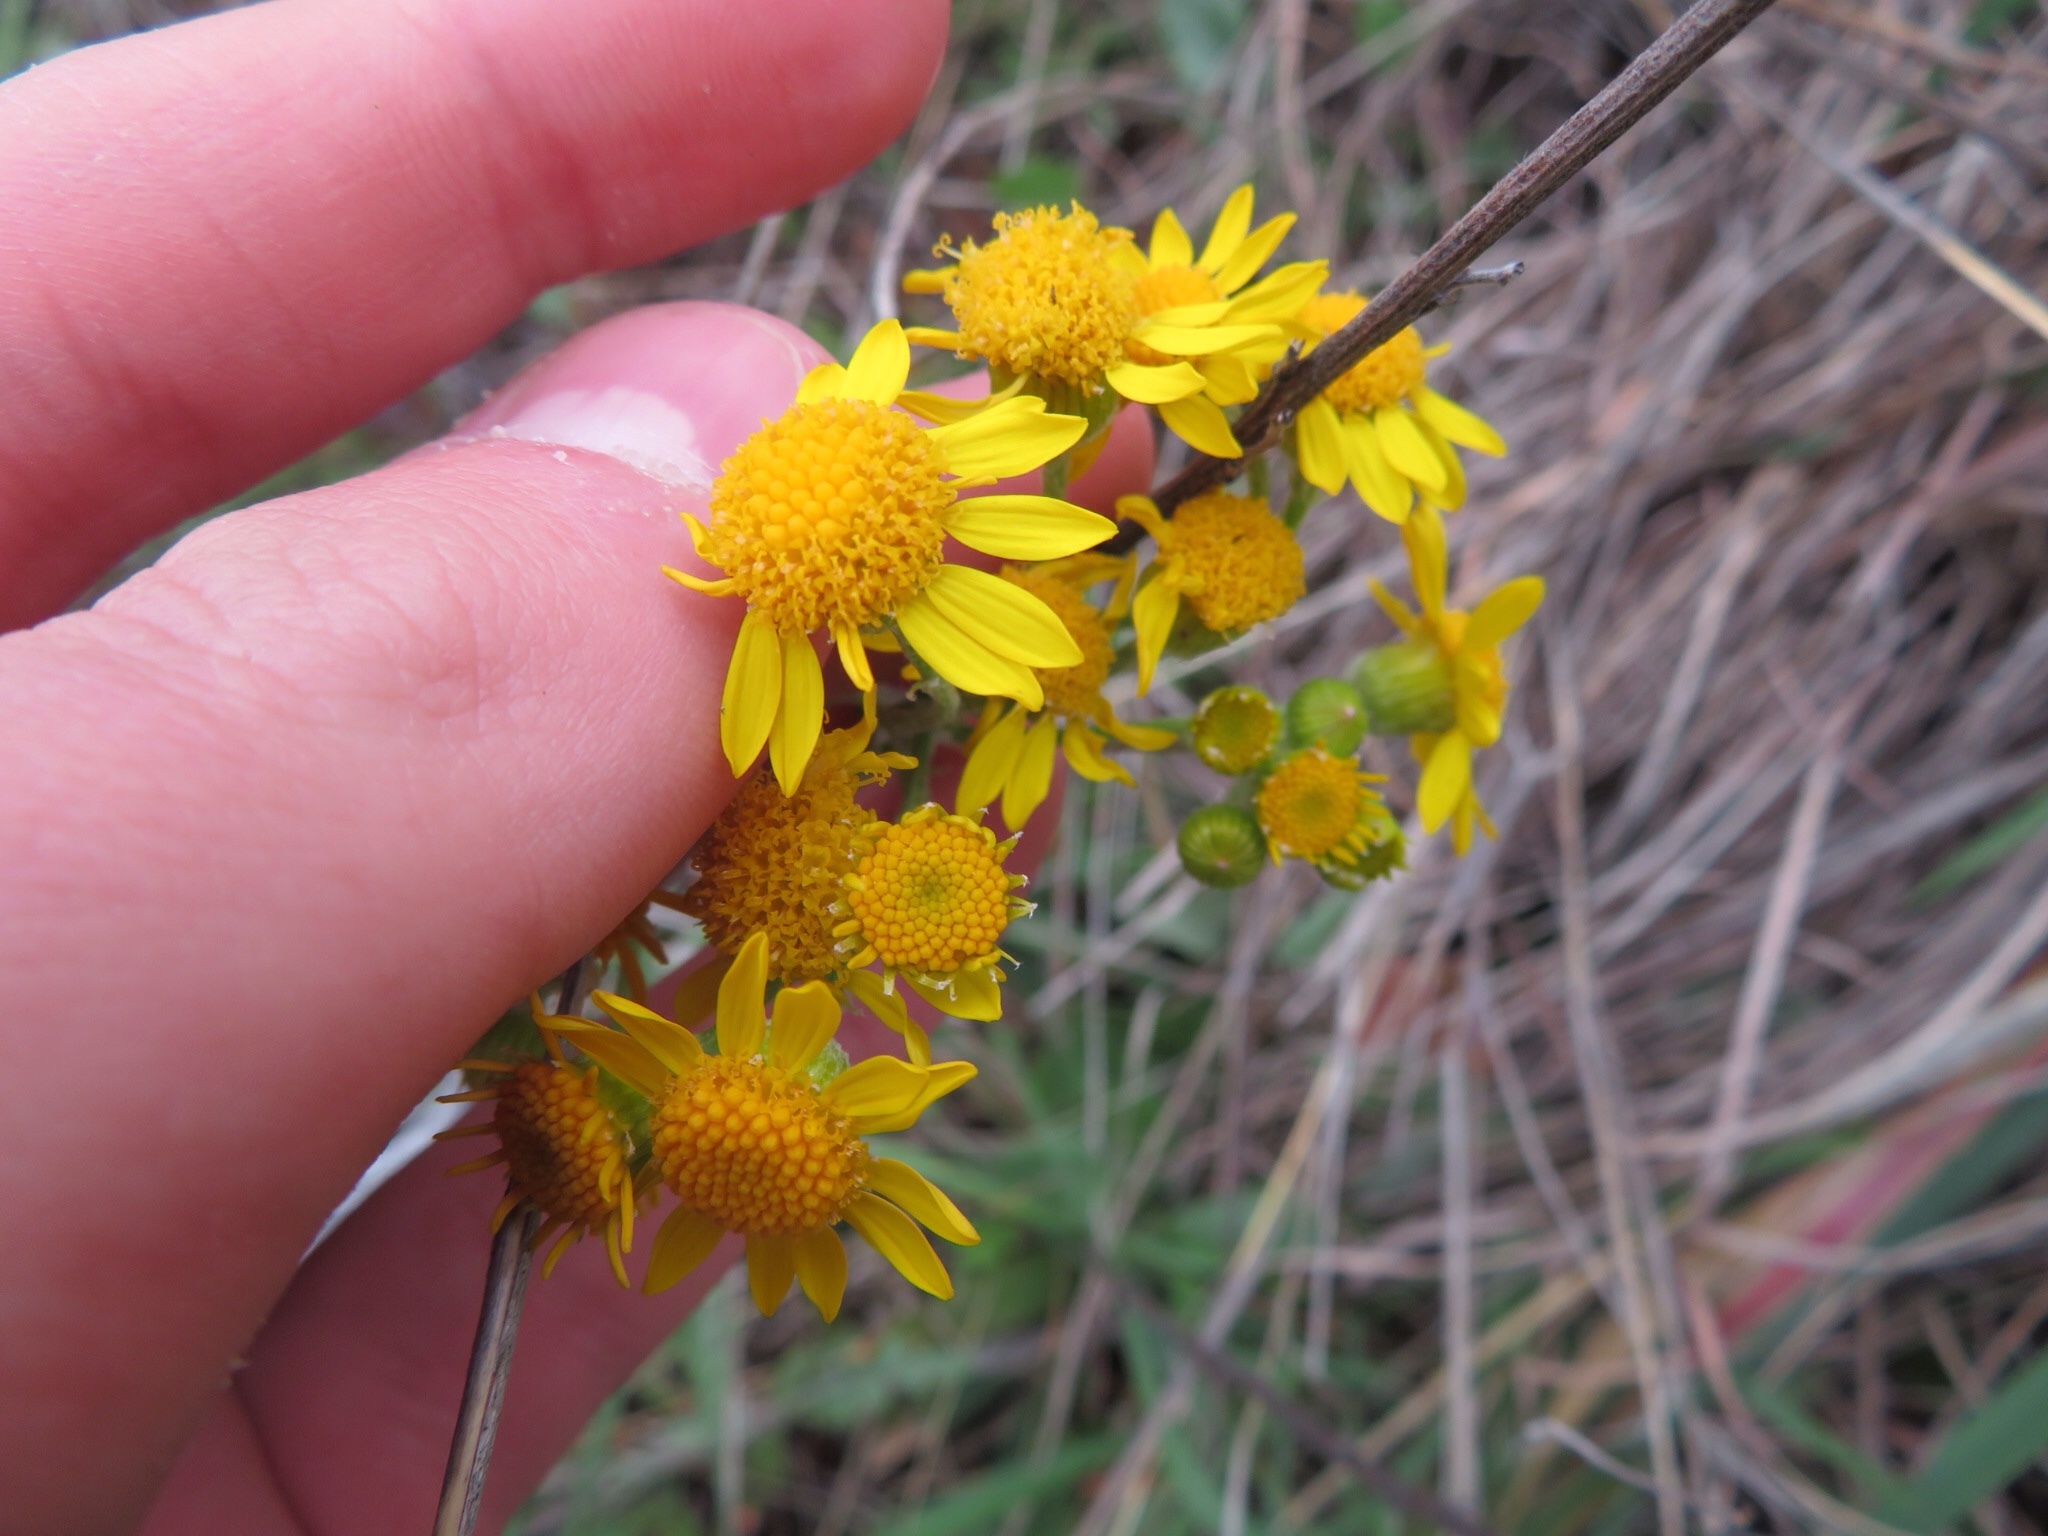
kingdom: Plantae
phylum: Tracheophyta
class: Magnoliopsida
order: Asterales
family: Asteraceae
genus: Packera
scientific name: Packera plattensis
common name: Prairie groundsel
